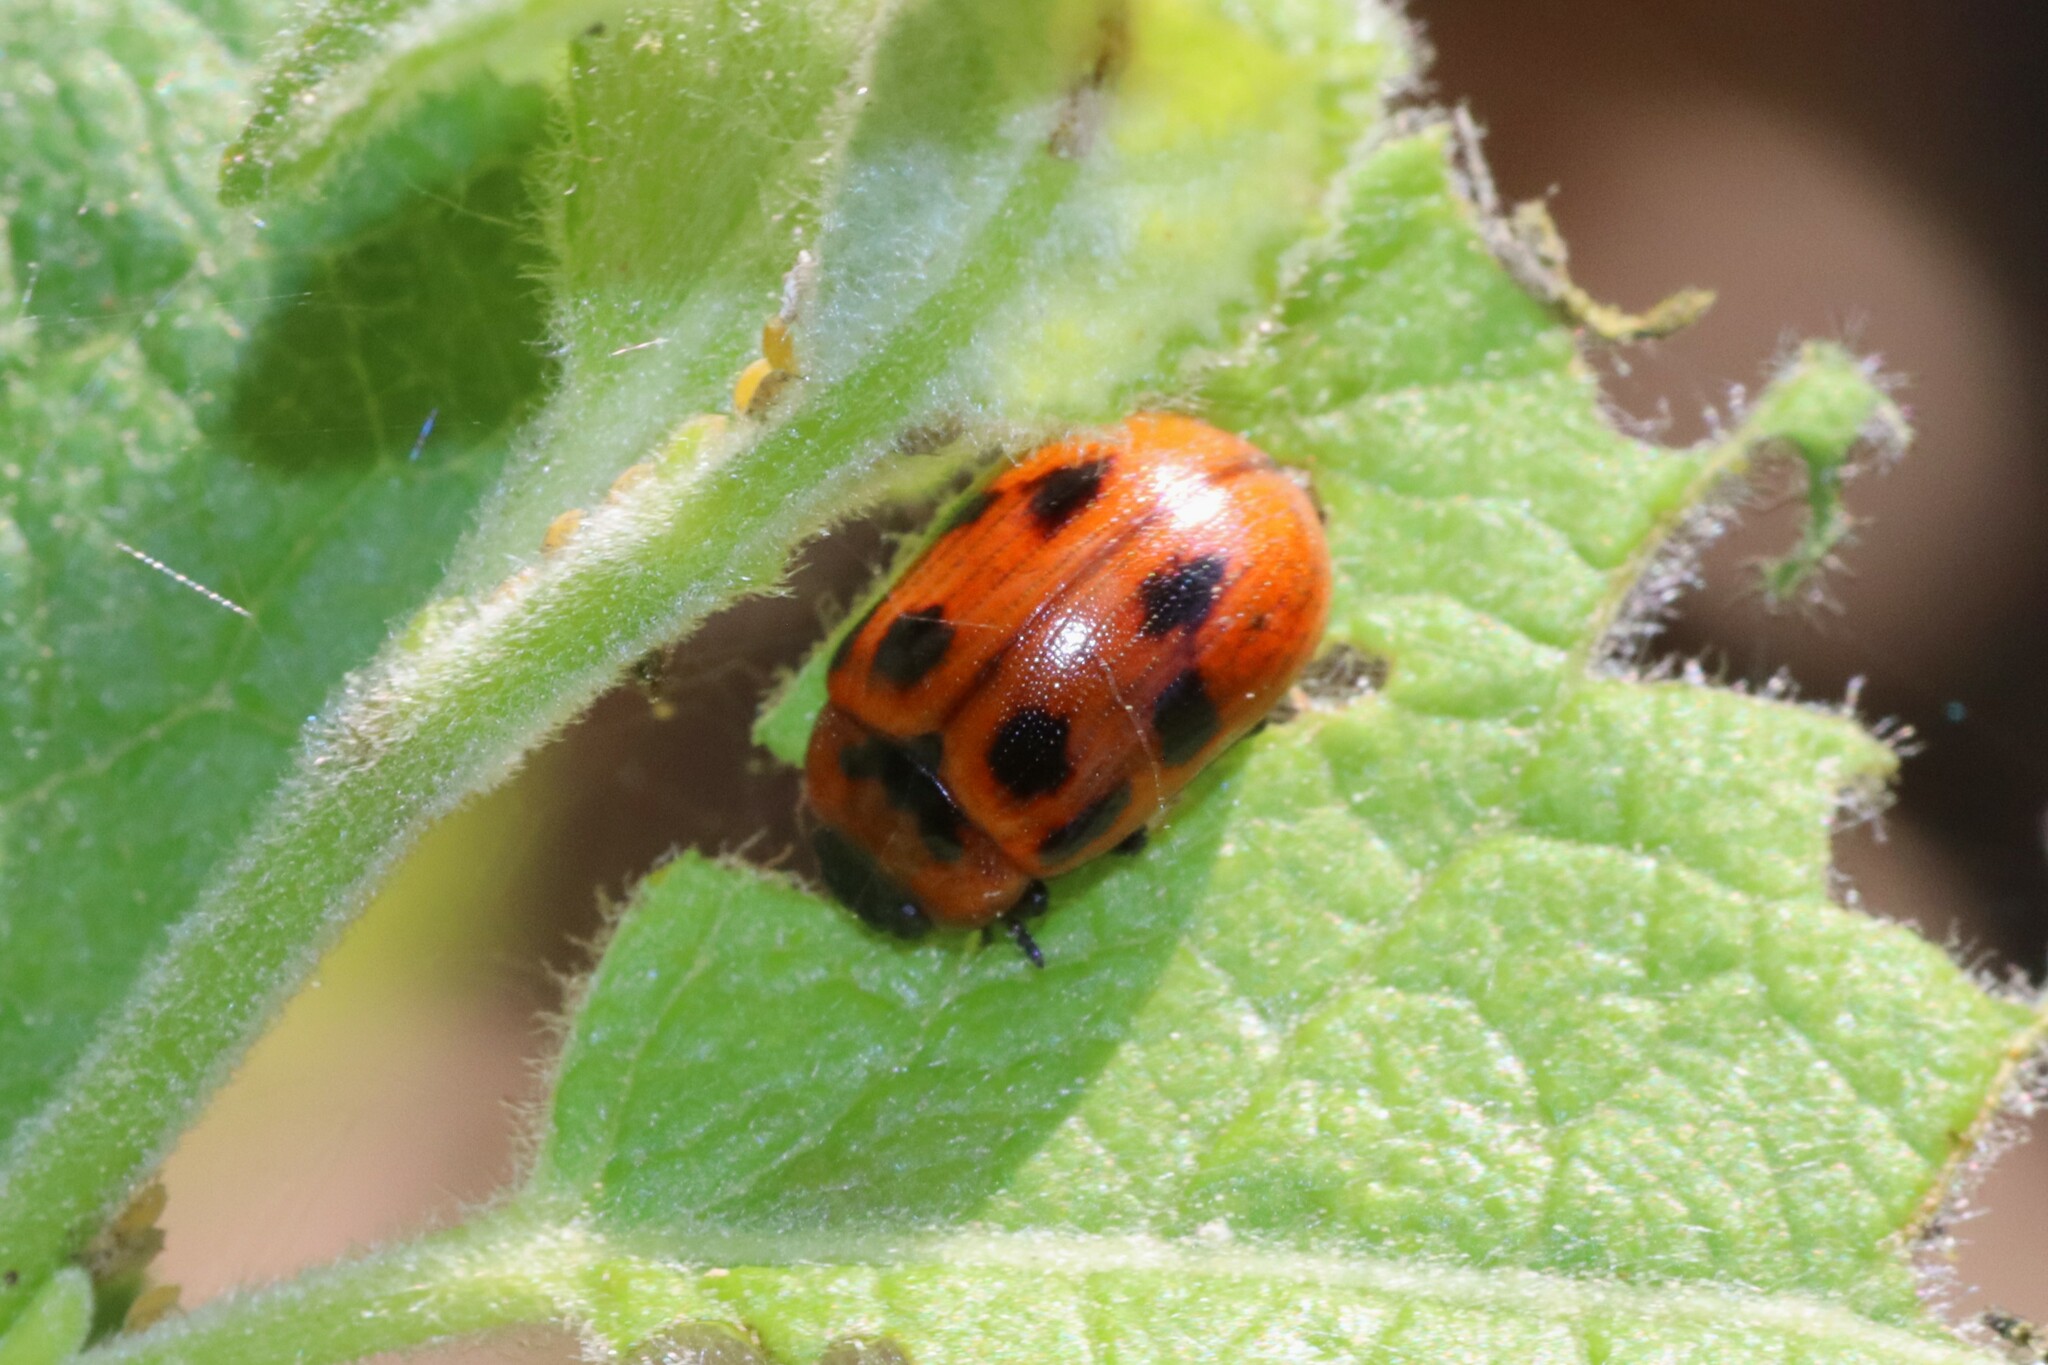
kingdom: Animalia
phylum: Arthropoda
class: Insecta
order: Coleoptera
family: Chrysomelidae
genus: Gonioctena
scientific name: Gonioctena viminalis
